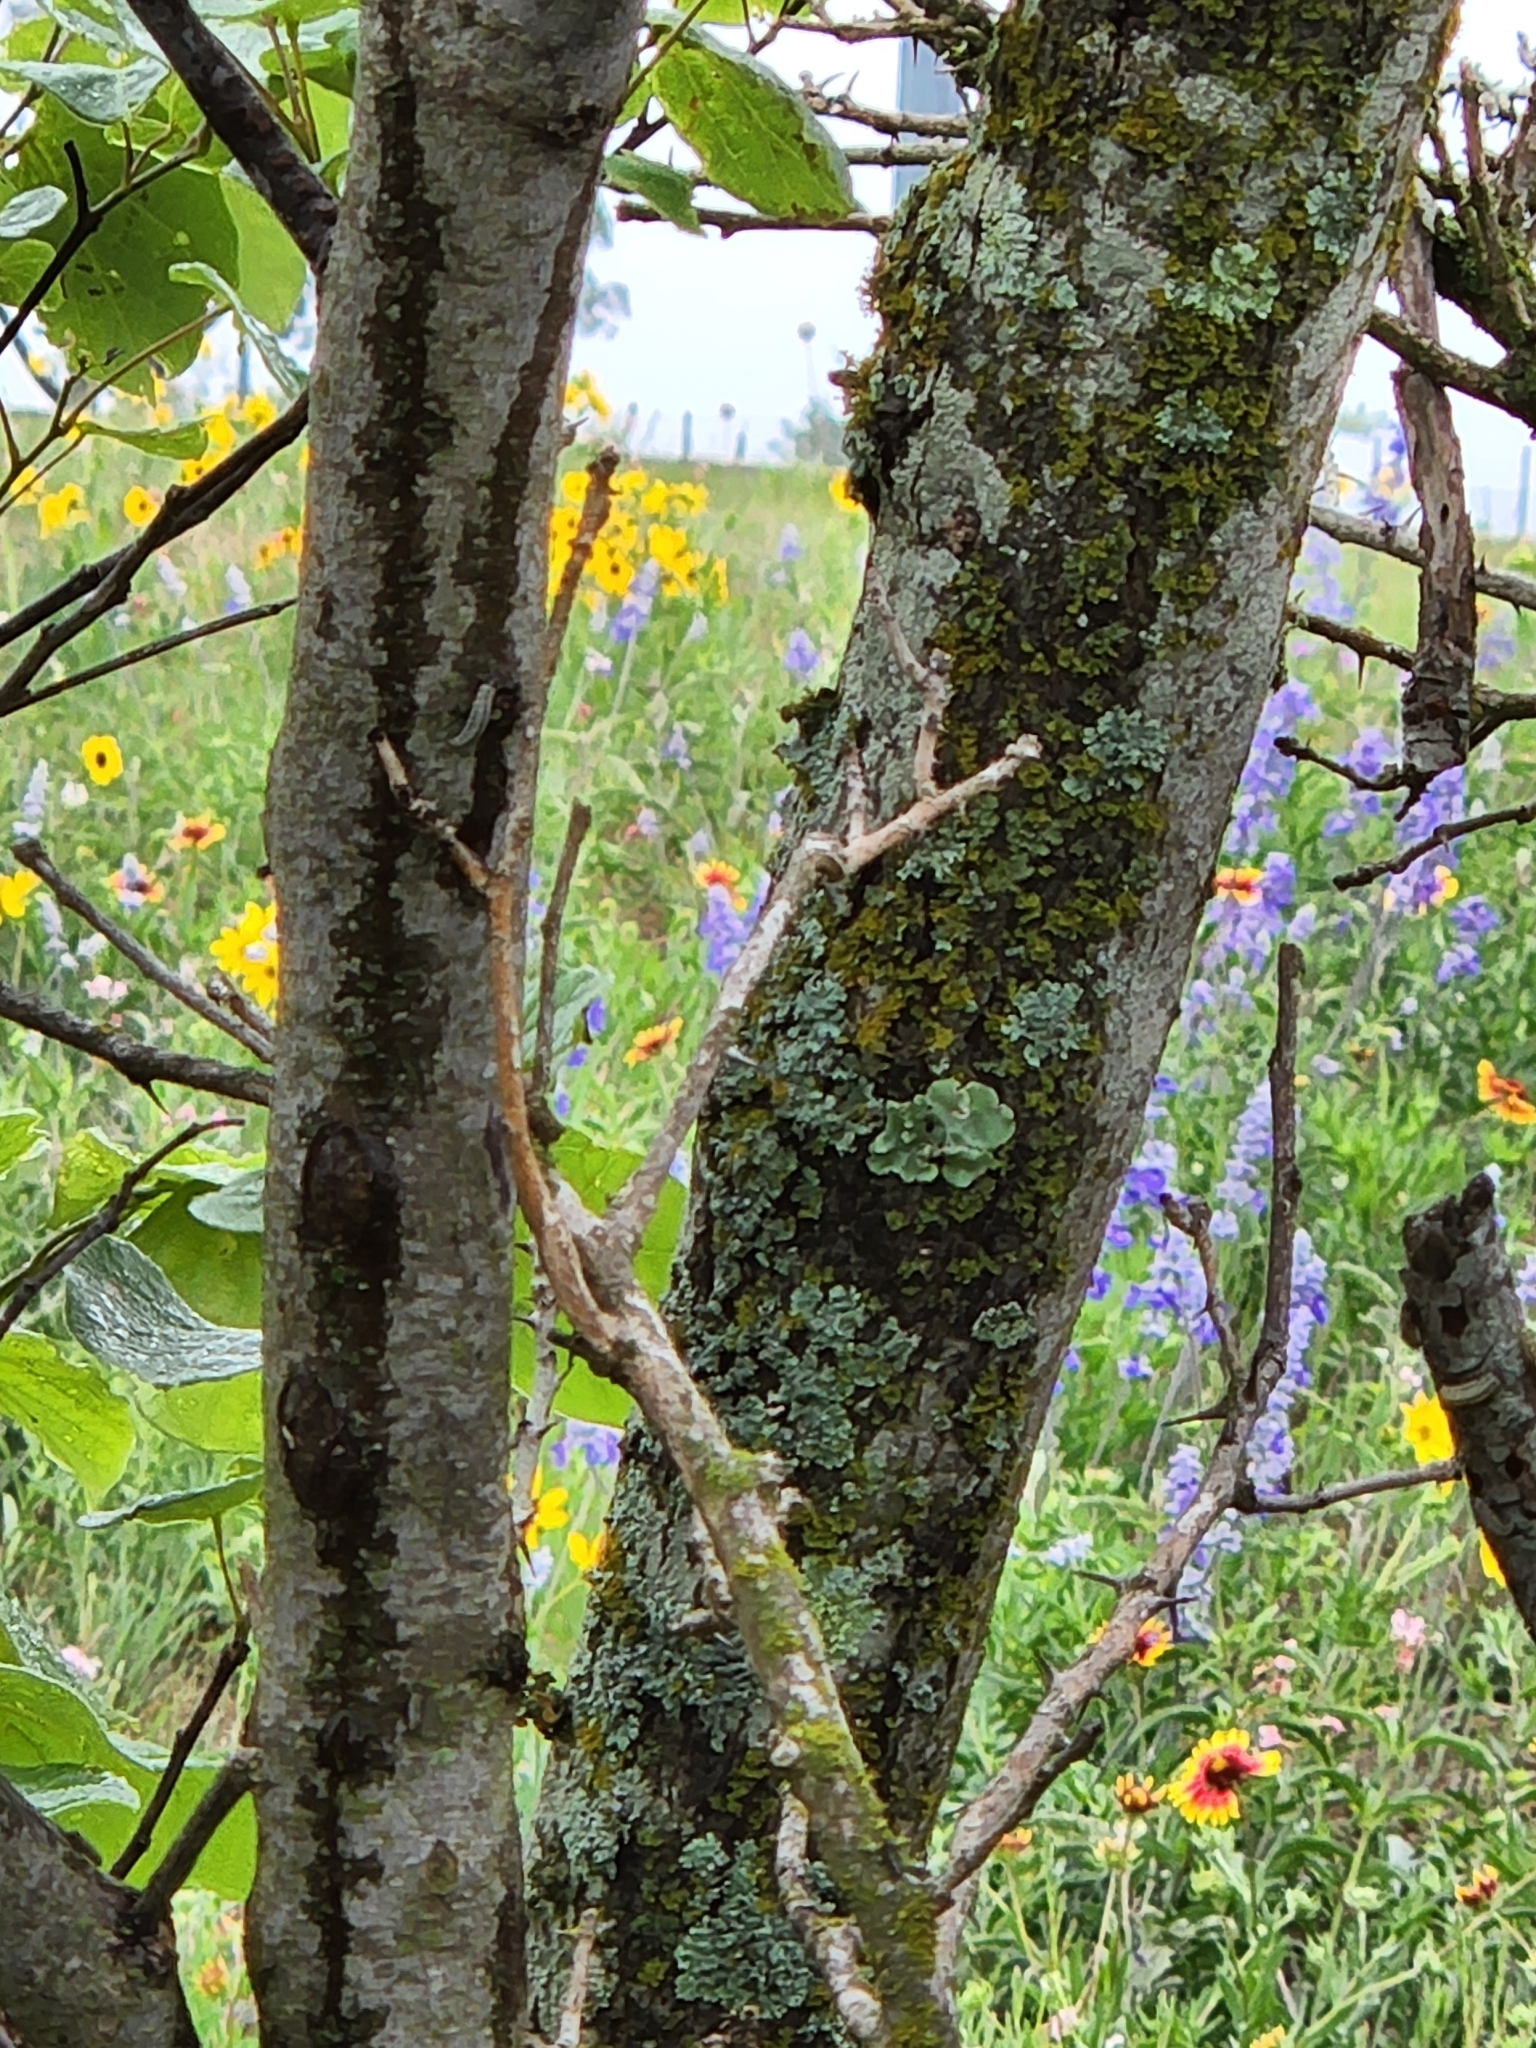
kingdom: Plantae
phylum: Tracheophyta
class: Magnoliopsida
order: Fabales
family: Fabaceae
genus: Cercis
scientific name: Cercis canadensis
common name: Eastern redbud
